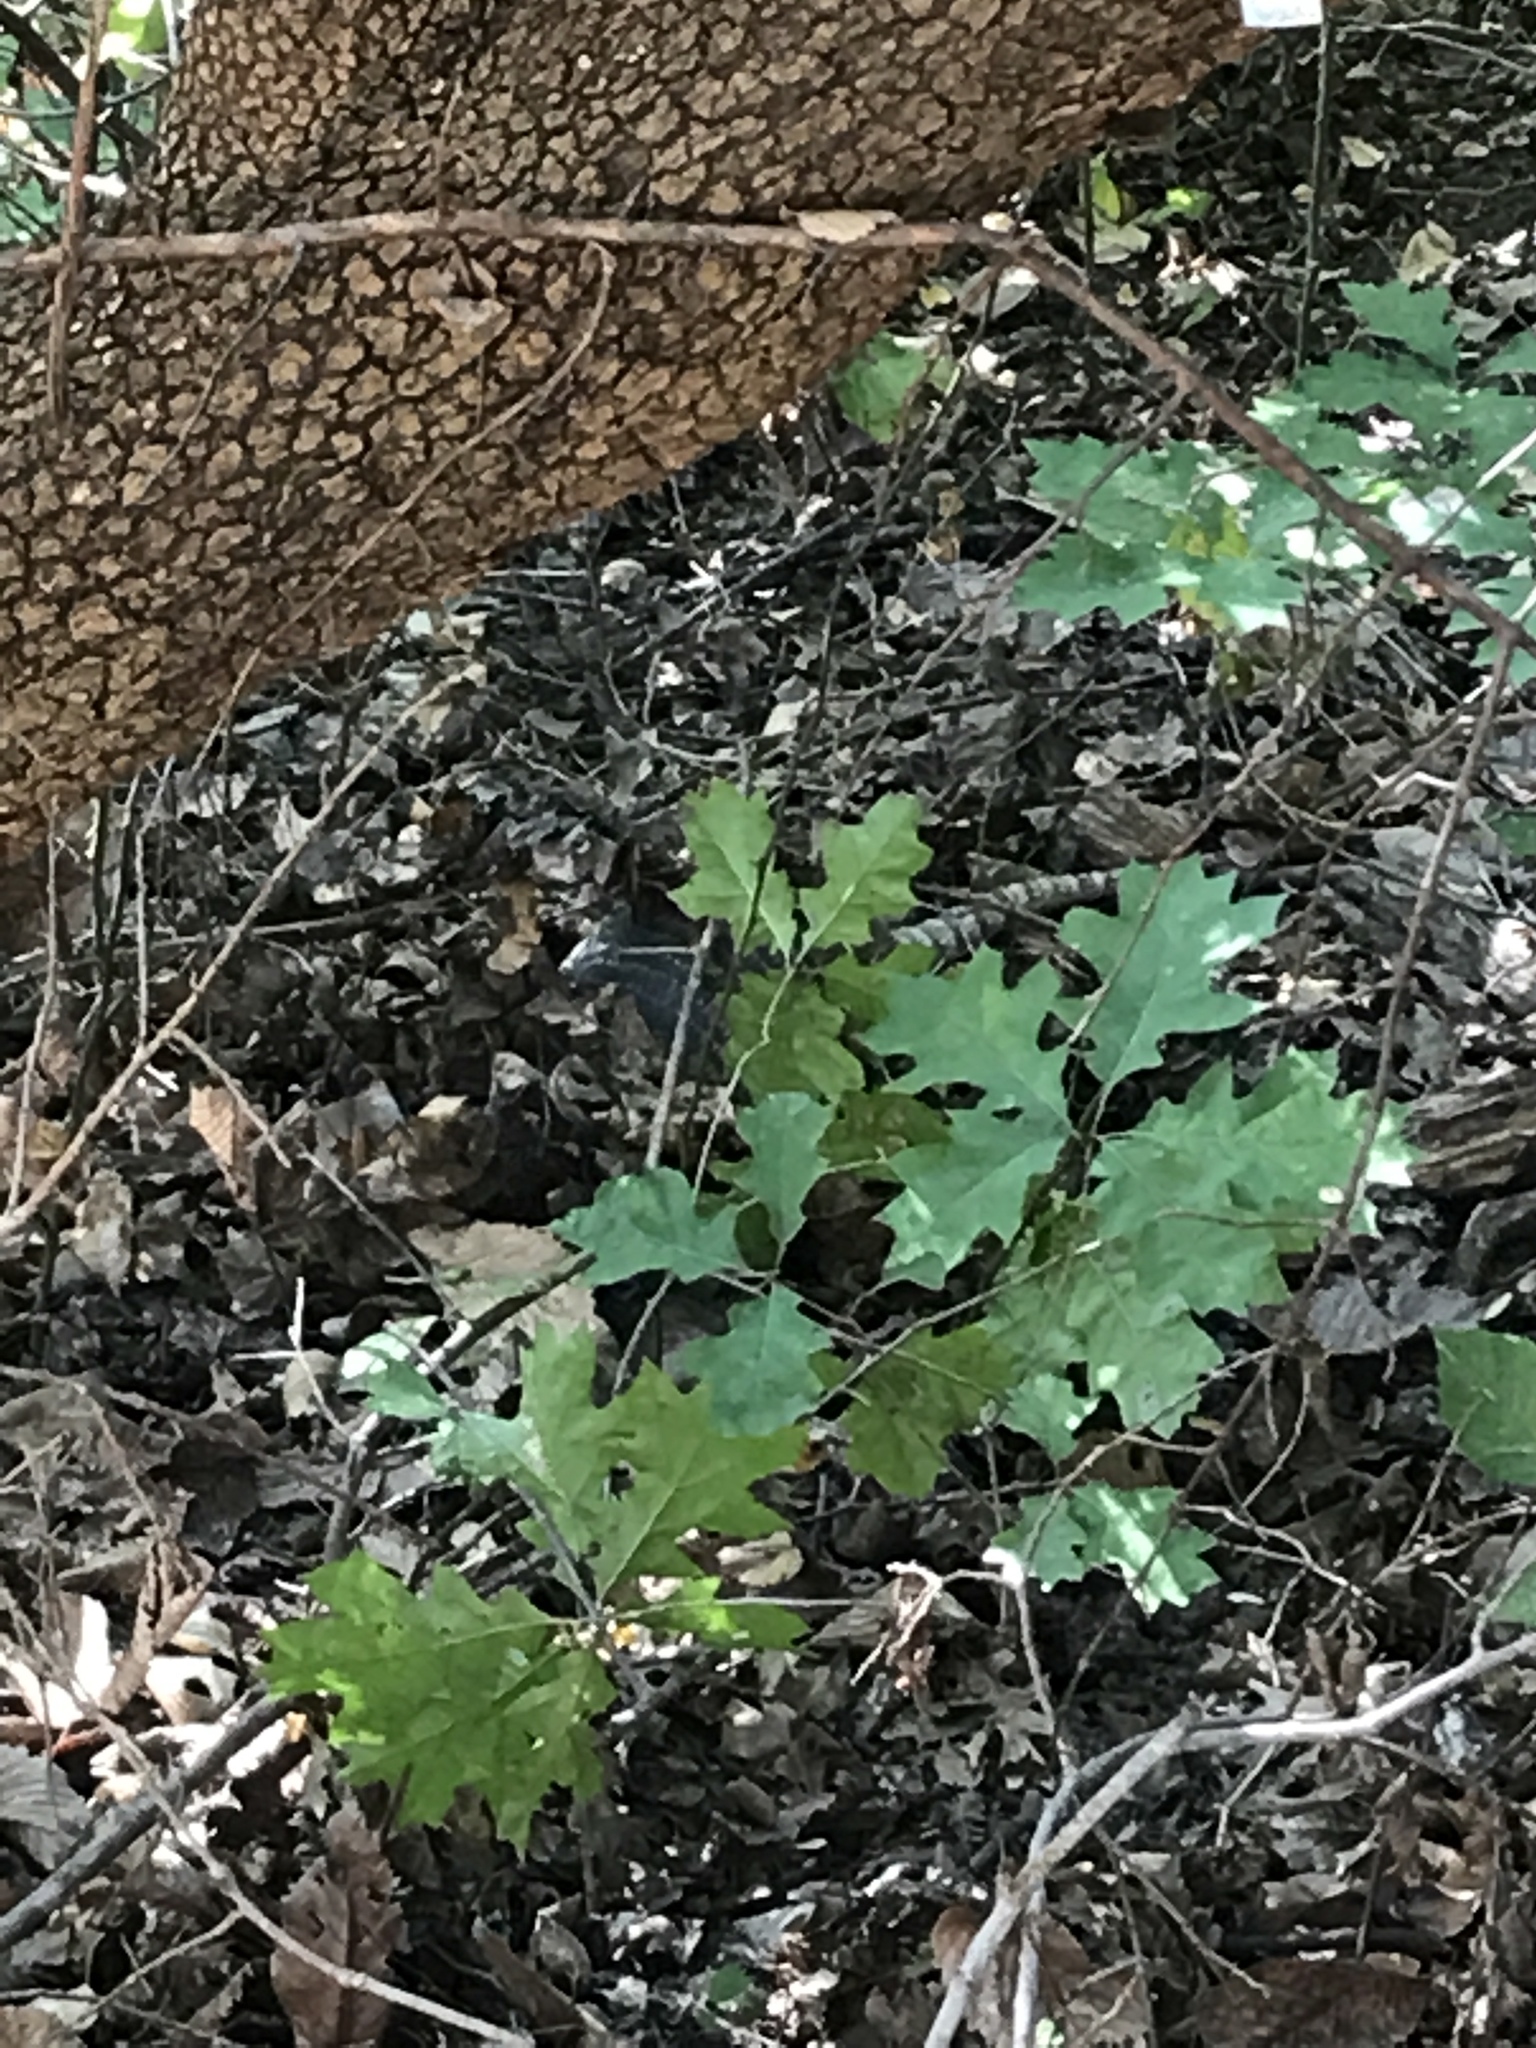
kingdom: Animalia
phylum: Chordata
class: Mammalia
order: Cingulata
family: Dasypodidae
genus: Dasypus
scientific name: Dasypus novemcinctus
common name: Nine-banded armadillo
